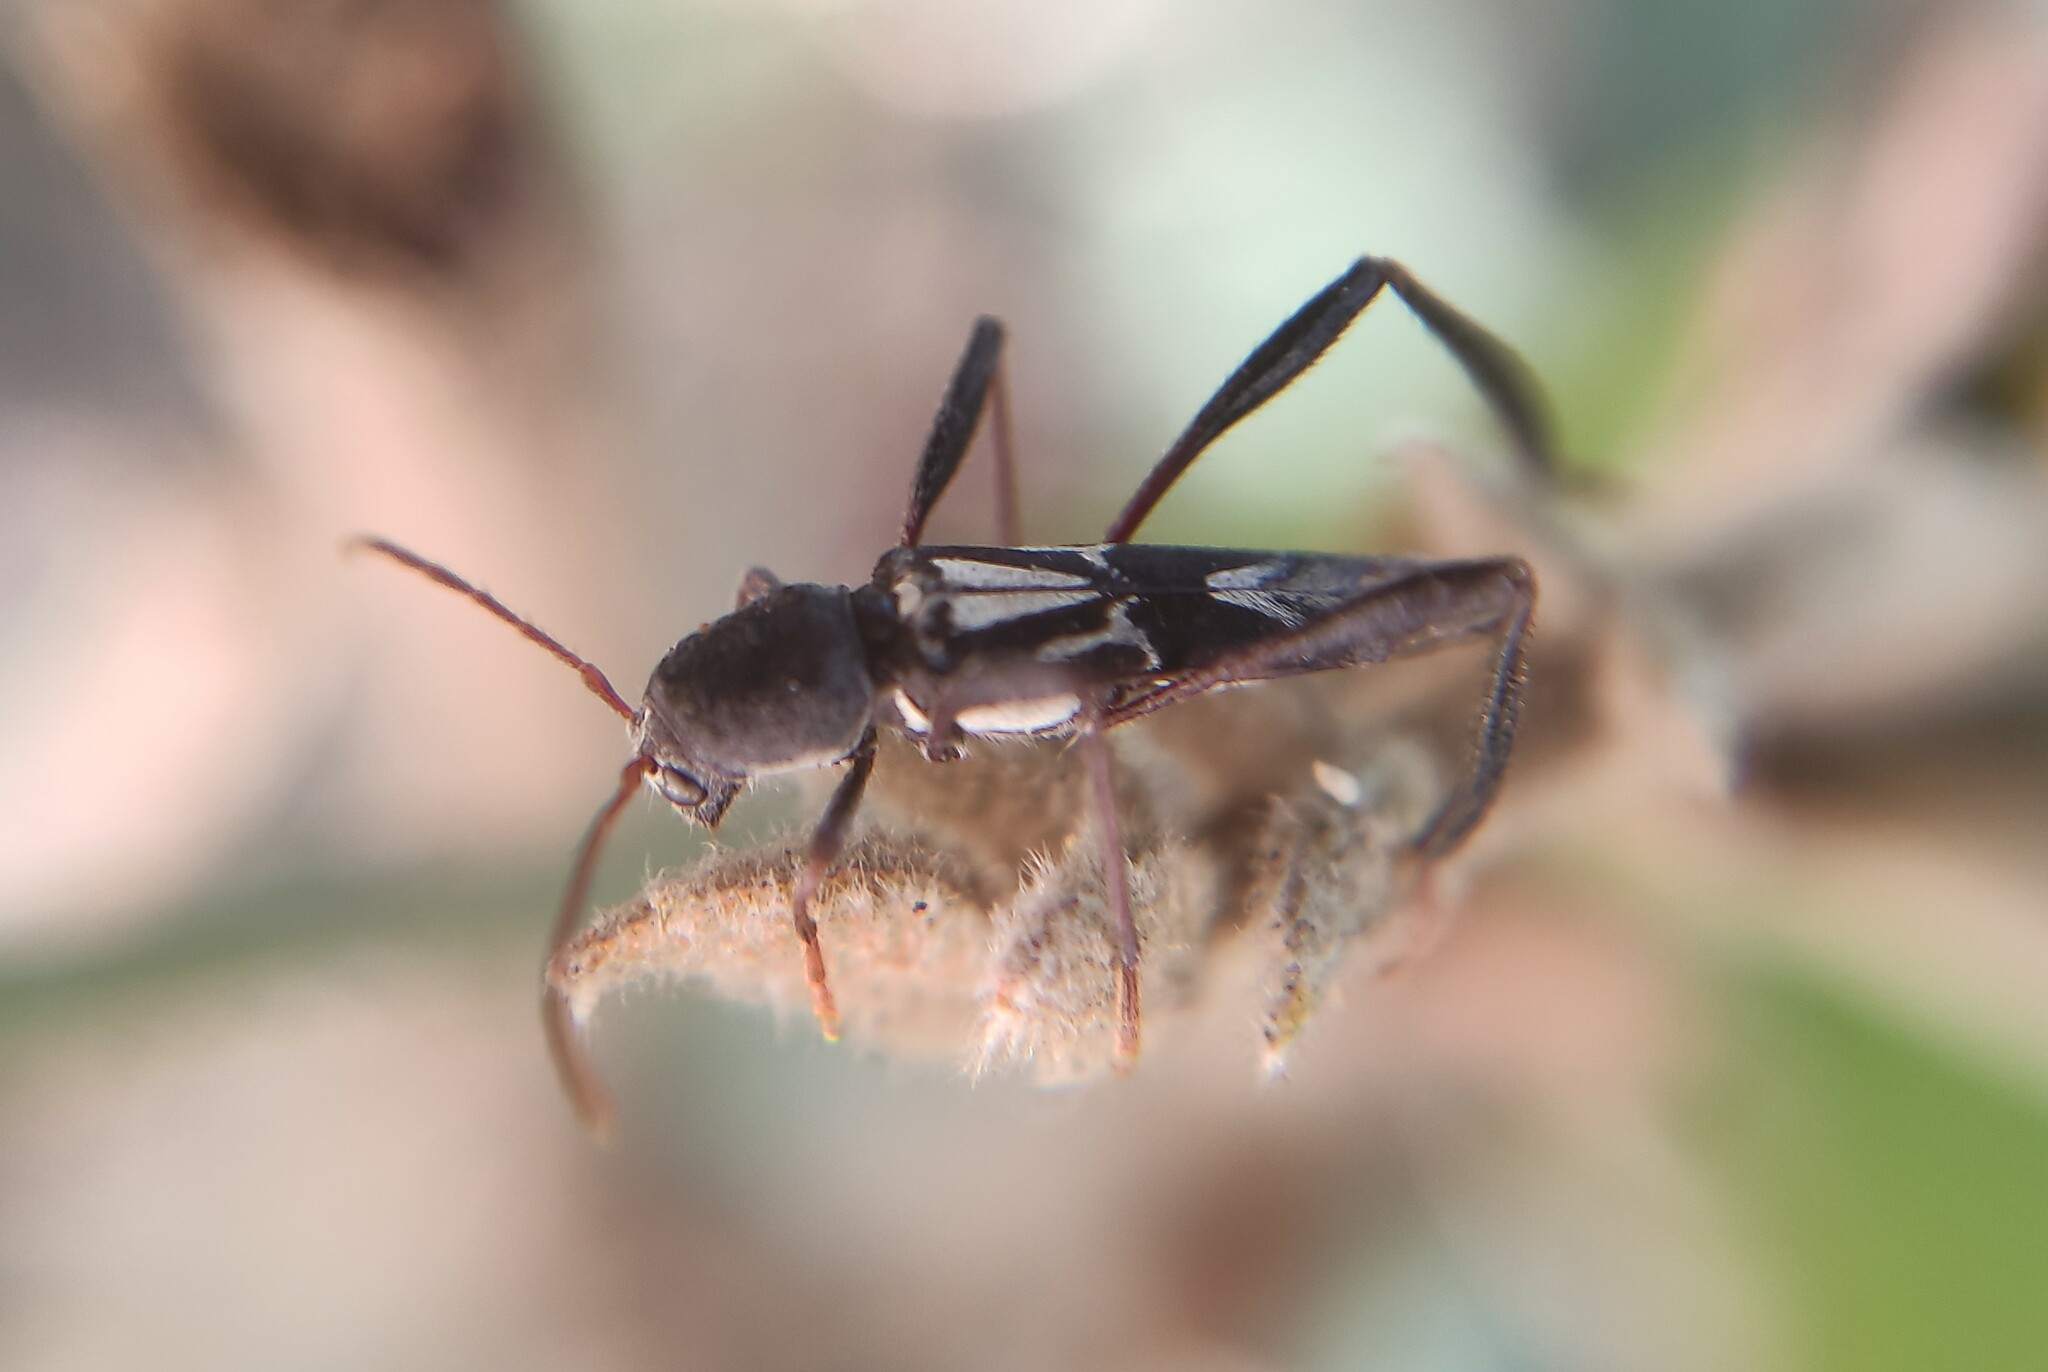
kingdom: Animalia
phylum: Arthropoda
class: Insecta
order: Coleoptera
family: Cerambycidae
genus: Neoclytus
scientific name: Neoclytus ypsilon
